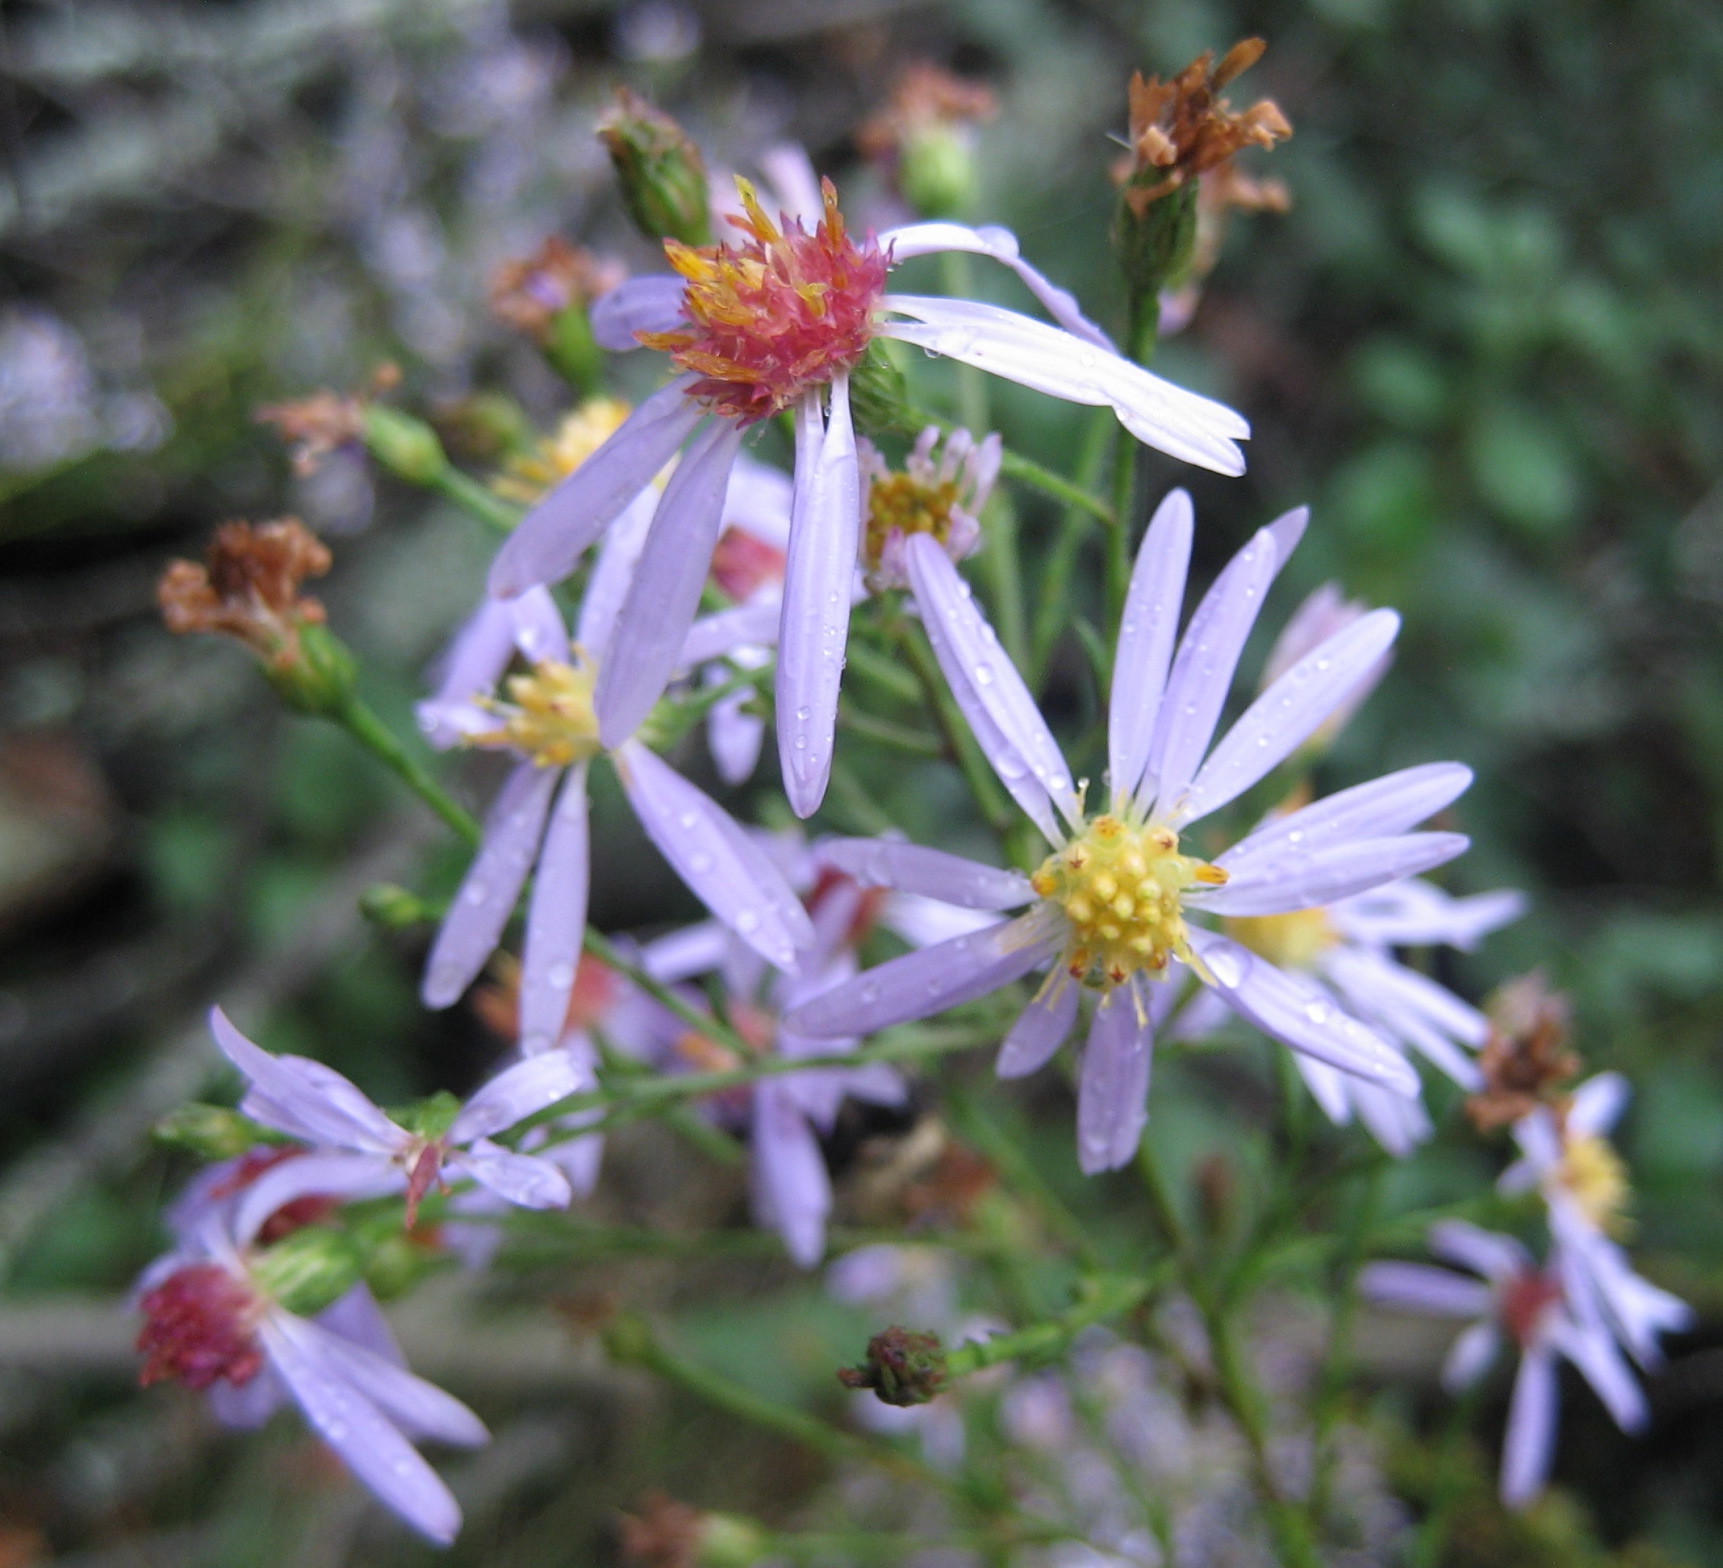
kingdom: Plantae
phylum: Tracheophyta
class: Magnoliopsida
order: Asterales
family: Asteraceae
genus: Symphyotrichum
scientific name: Symphyotrichum ciliolatum
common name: Fringed blue aster
